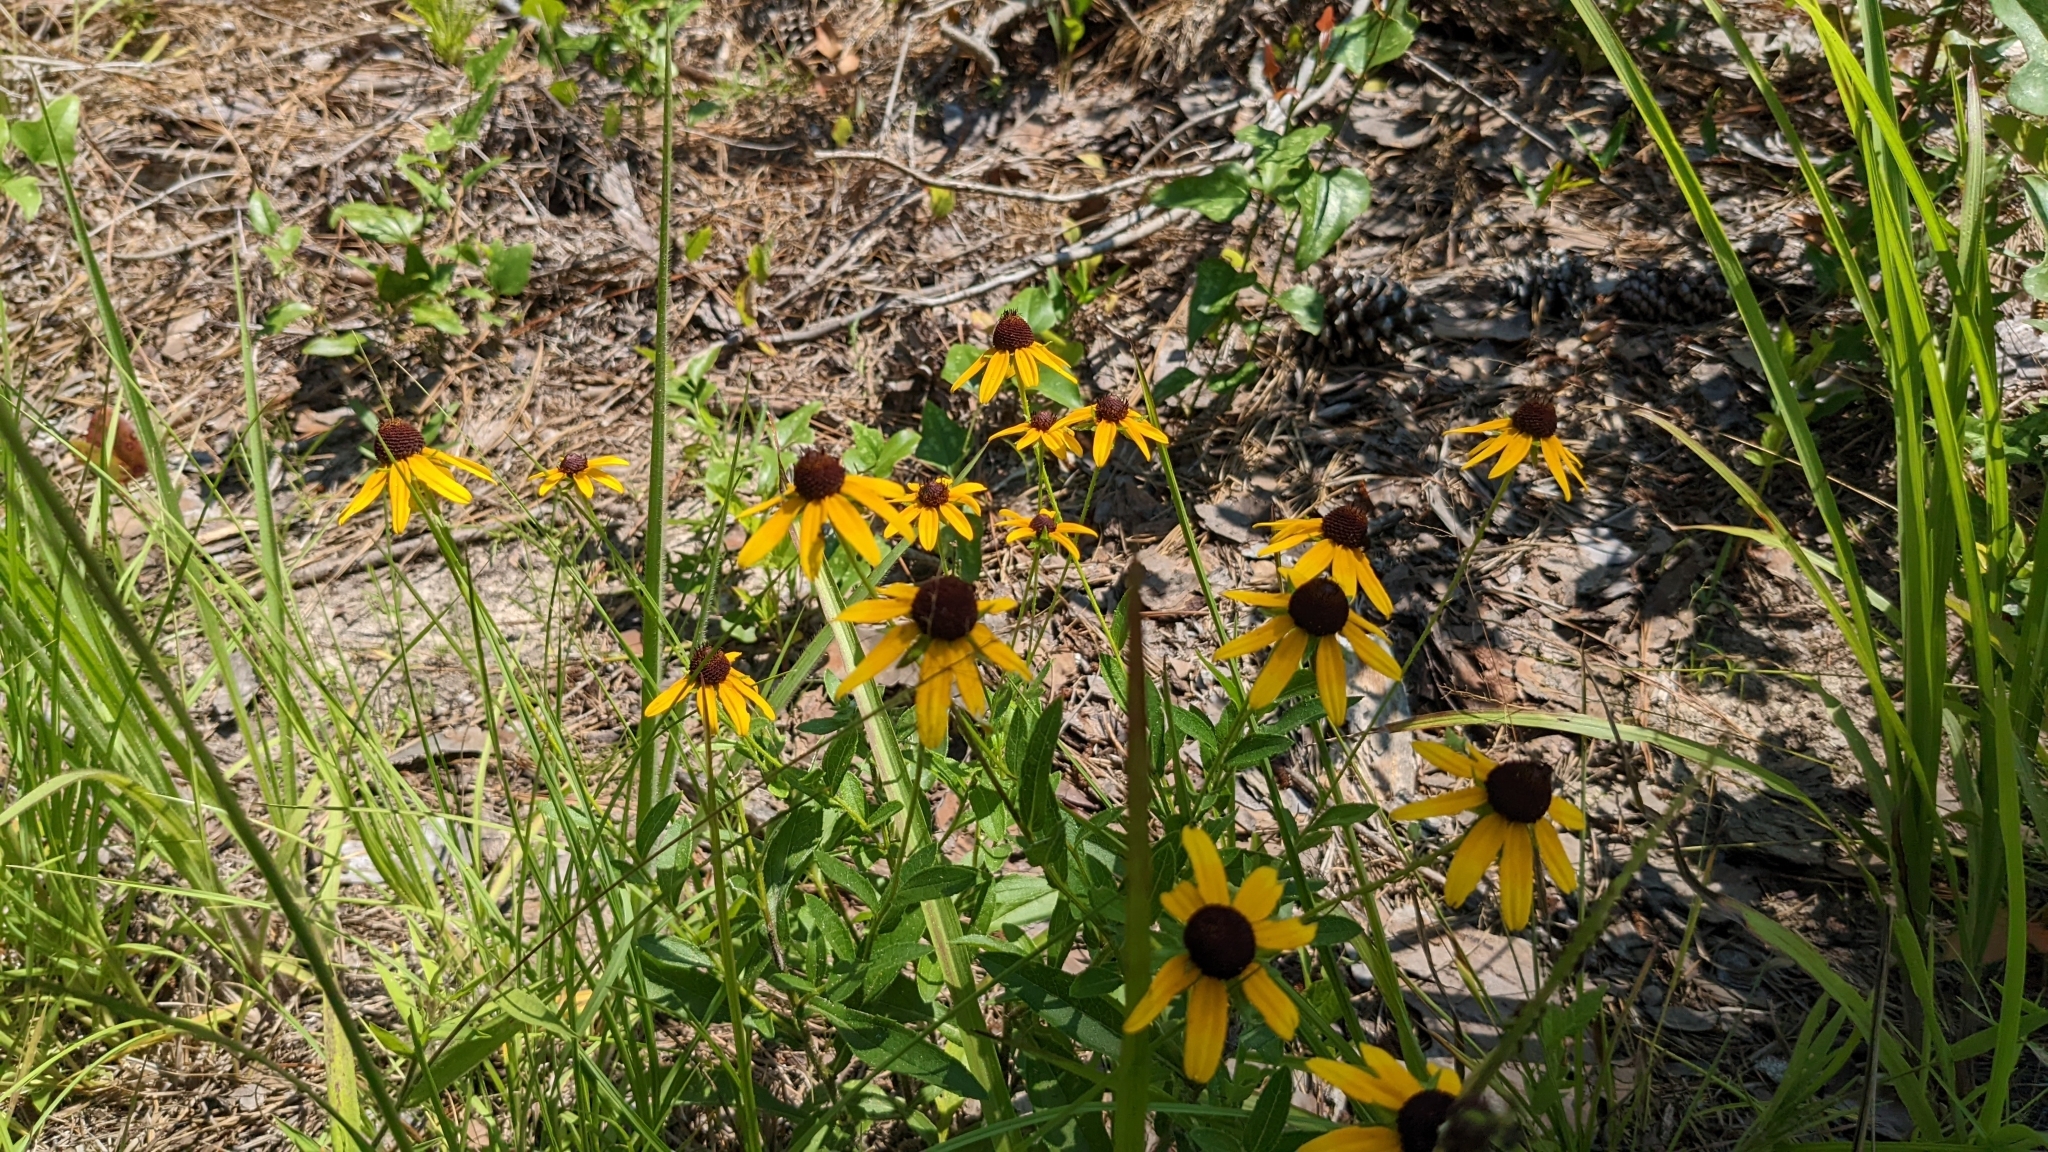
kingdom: Plantae
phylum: Tracheophyta
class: Magnoliopsida
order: Asterales
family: Asteraceae
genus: Rudbeckia
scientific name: Rudbeckia hirta
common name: Black-eyed-susan
